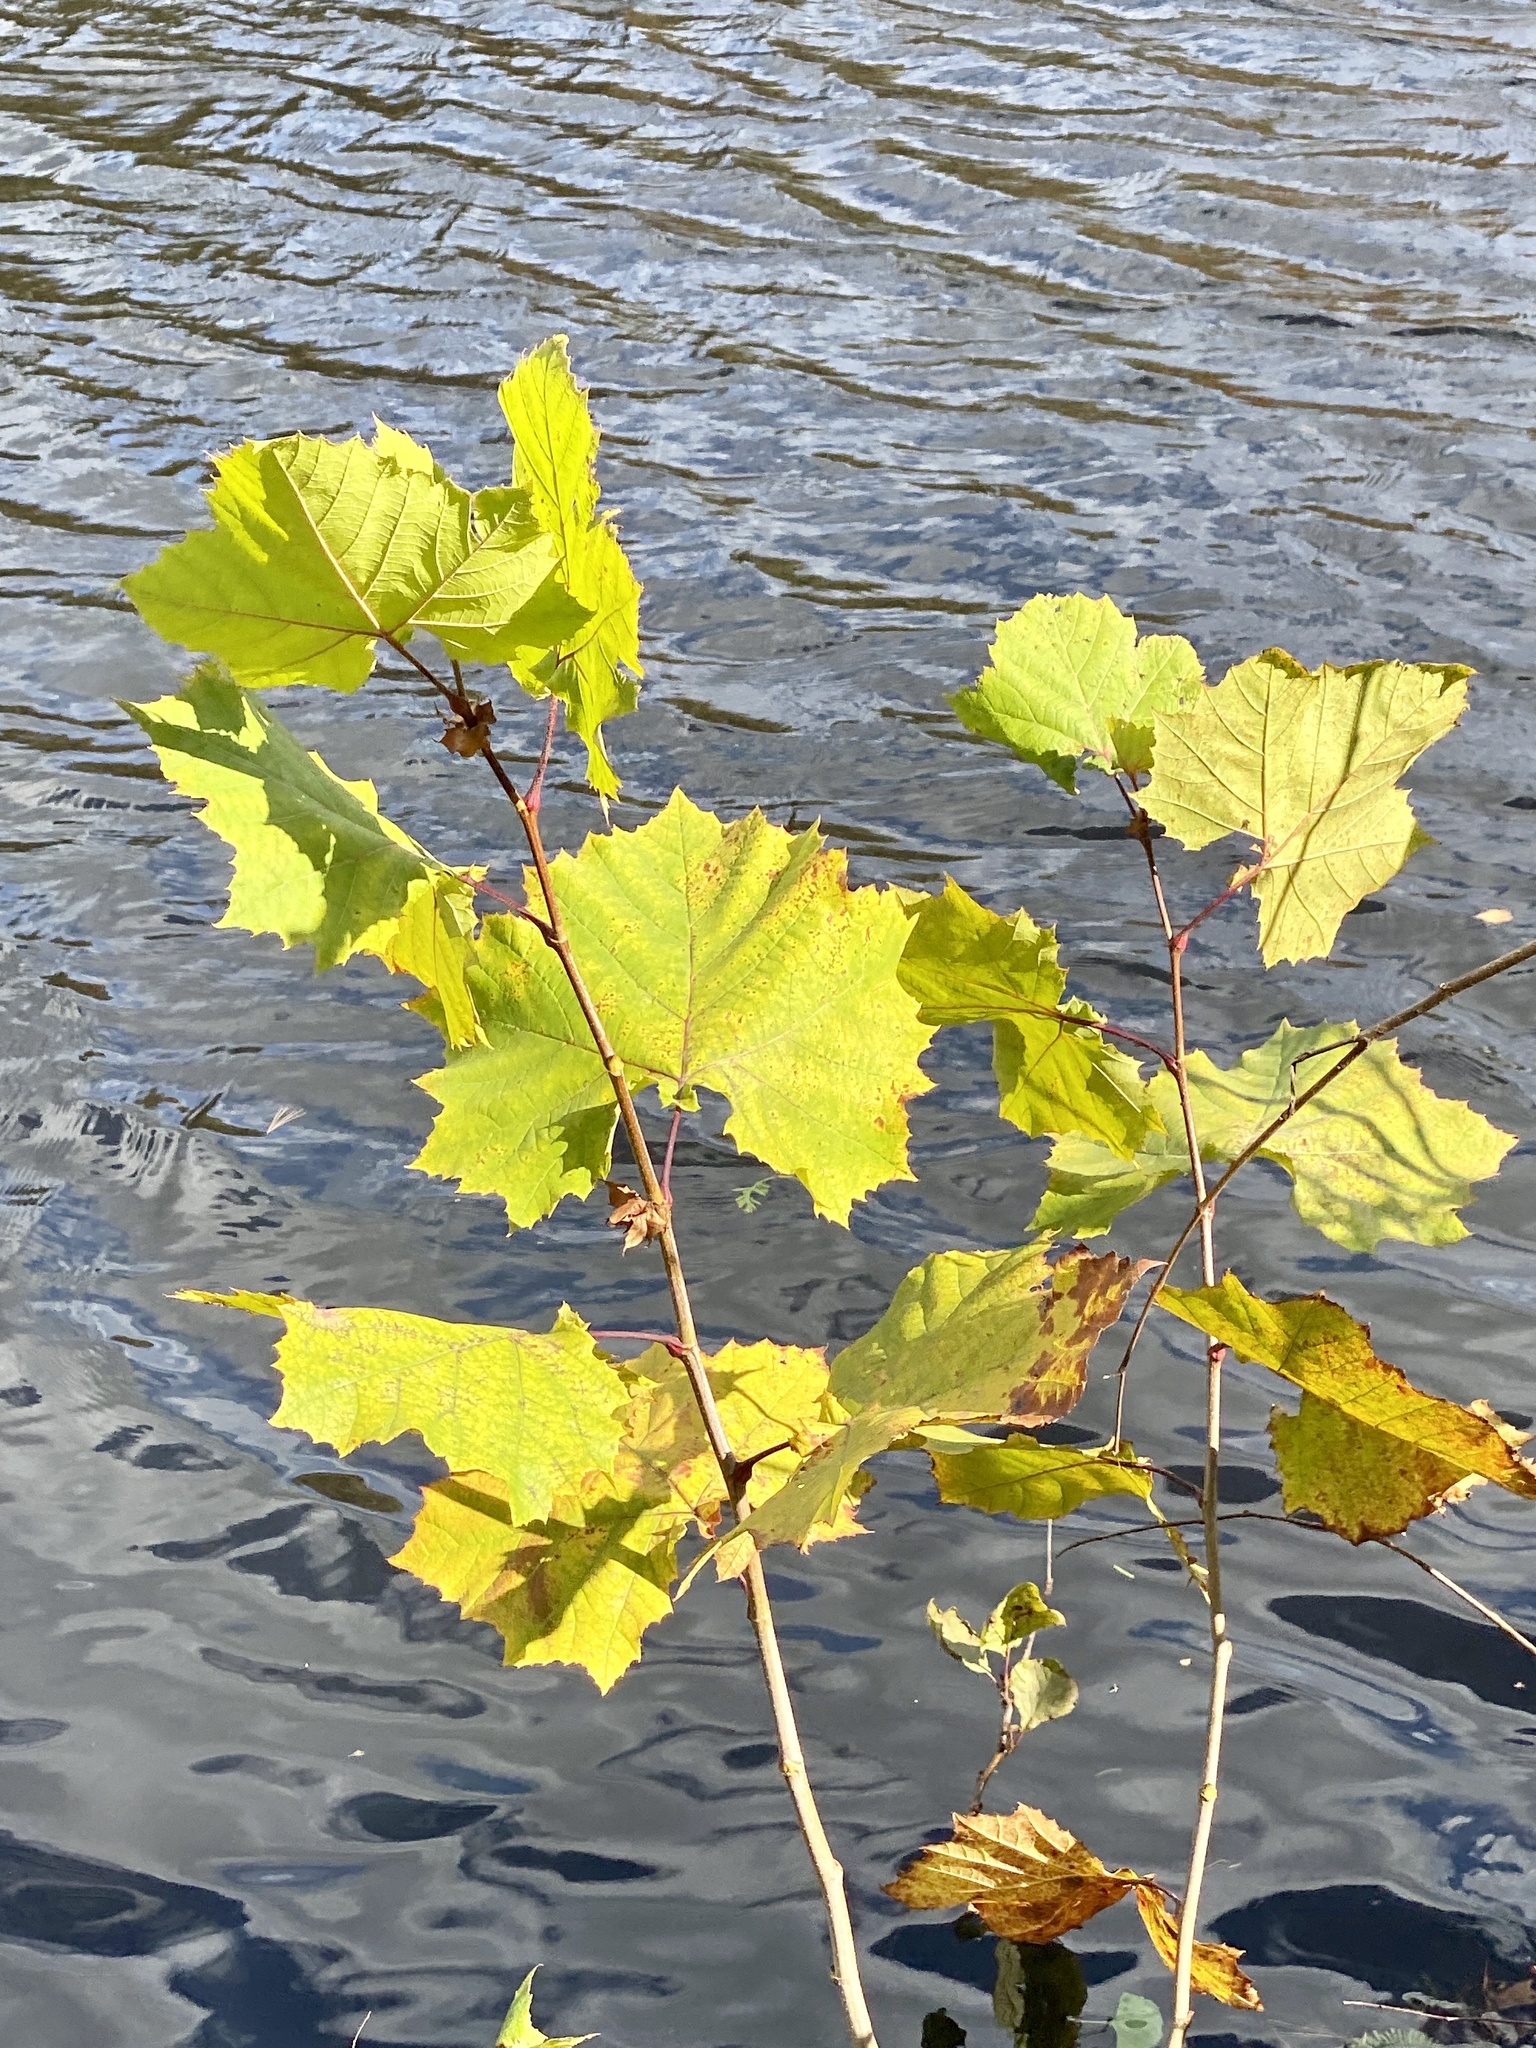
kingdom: Plantae
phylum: Tracheophyta
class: Magnoliopsida
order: Proteales
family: Platanaceae
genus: Platanus
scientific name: Platanus occidentalis
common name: American sycamore
